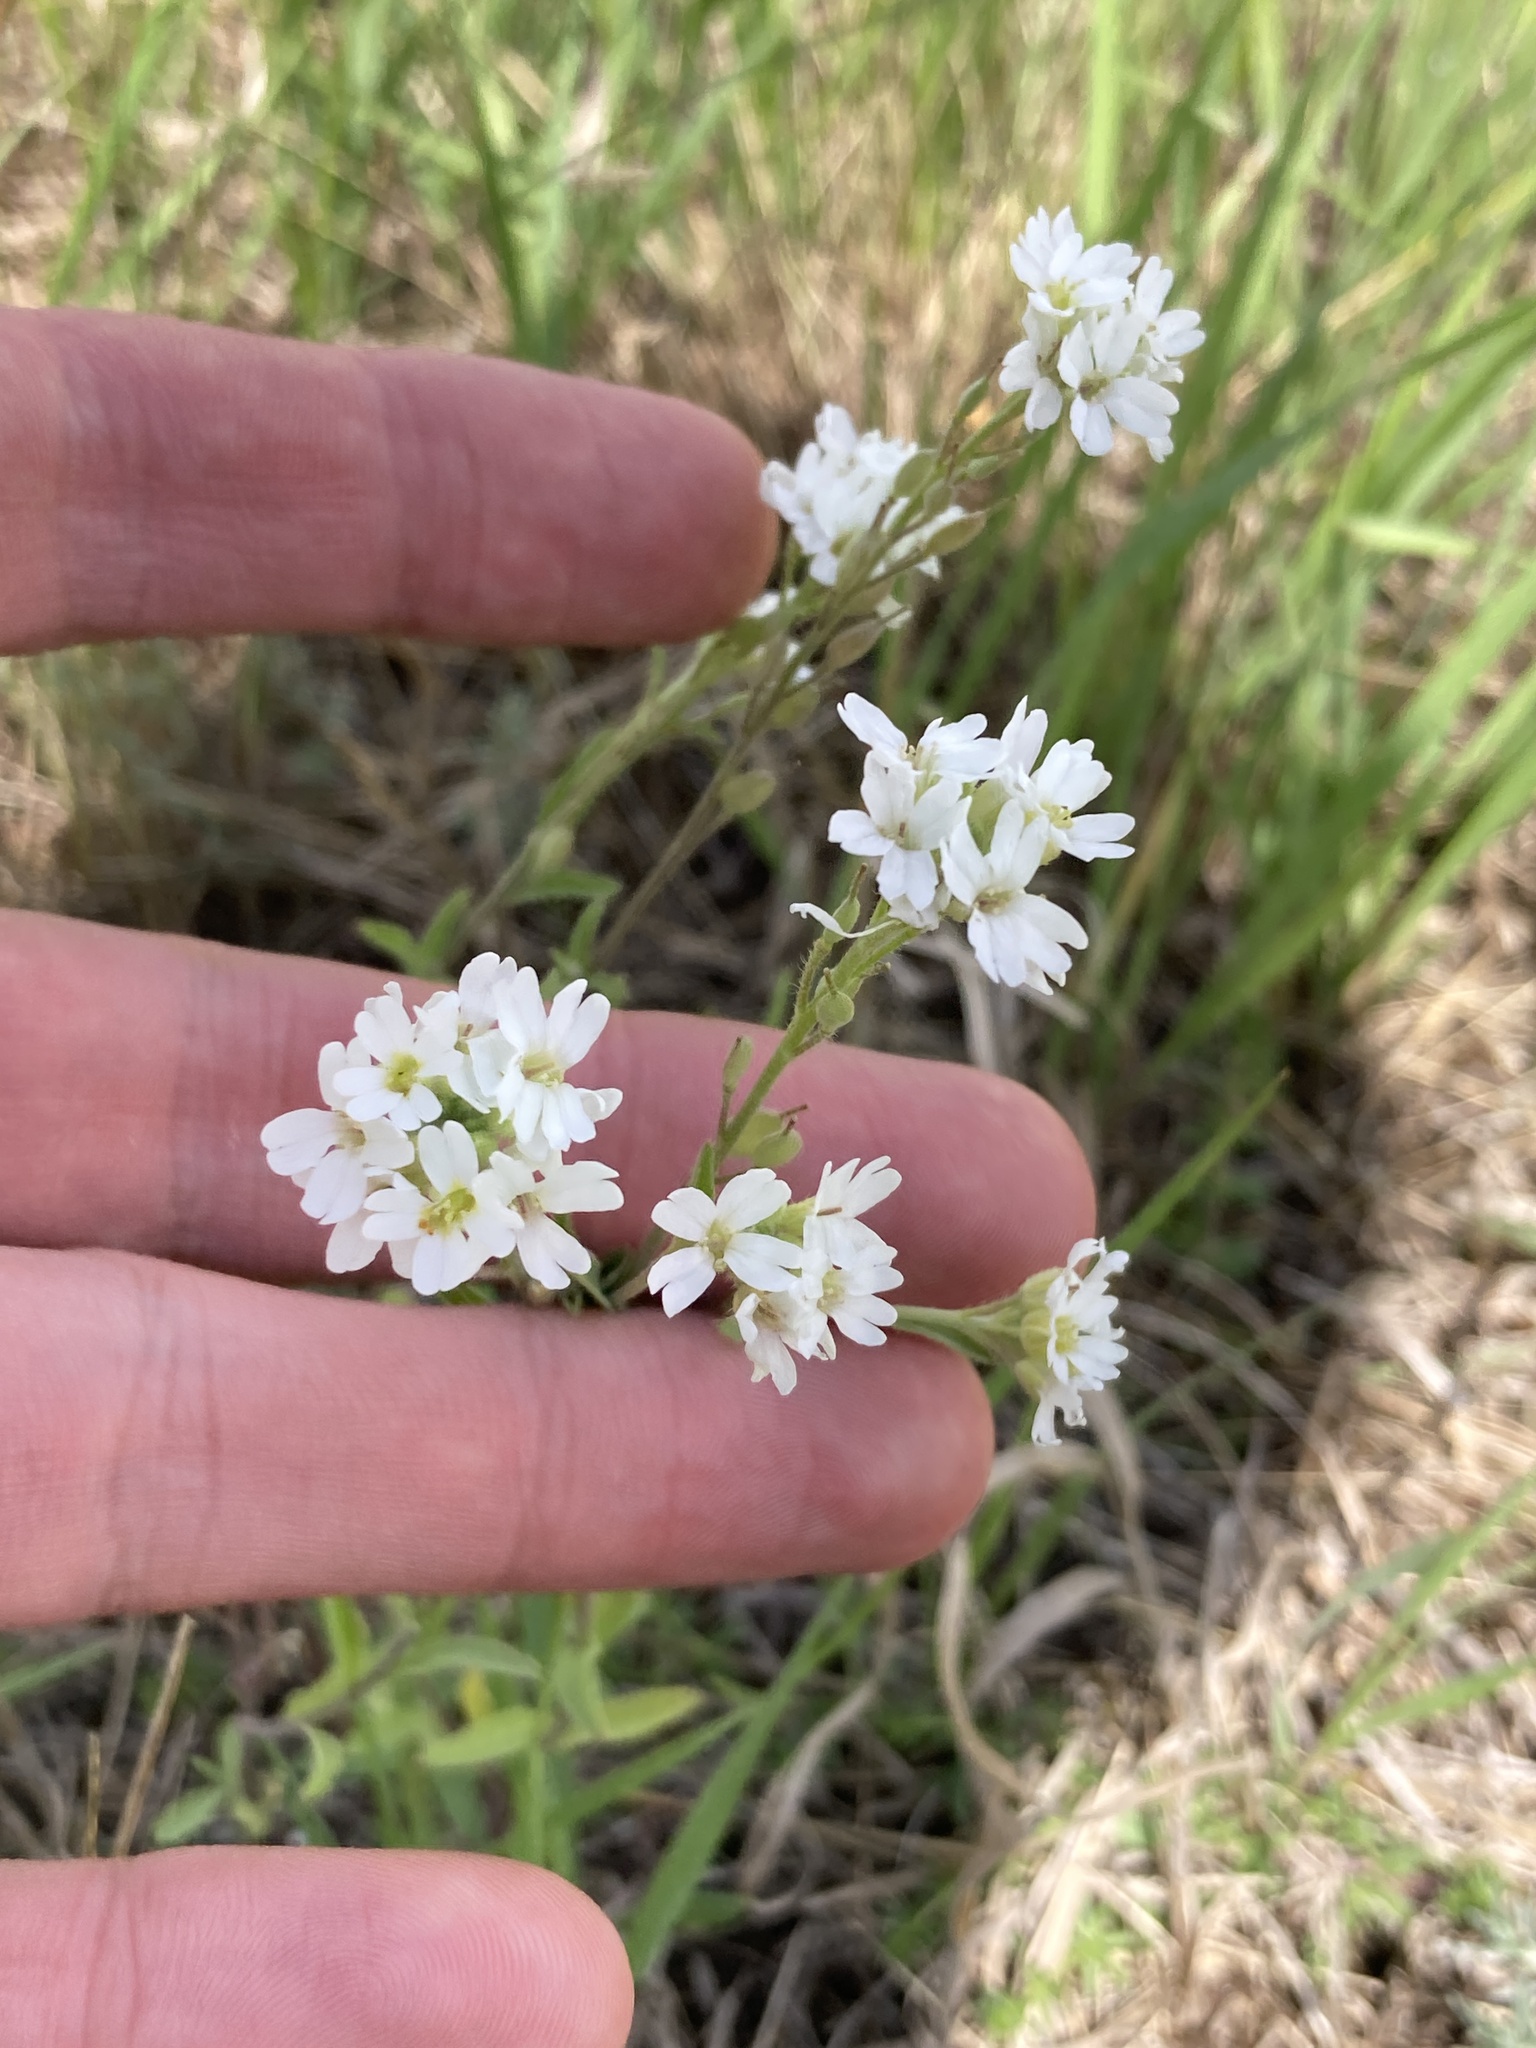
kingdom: Plantae
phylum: Tracheophyta
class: Magnoliopsida
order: Brassicales
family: Brassicaceae
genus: Berteroa
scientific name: Berteroa incana
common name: Hoary alison
